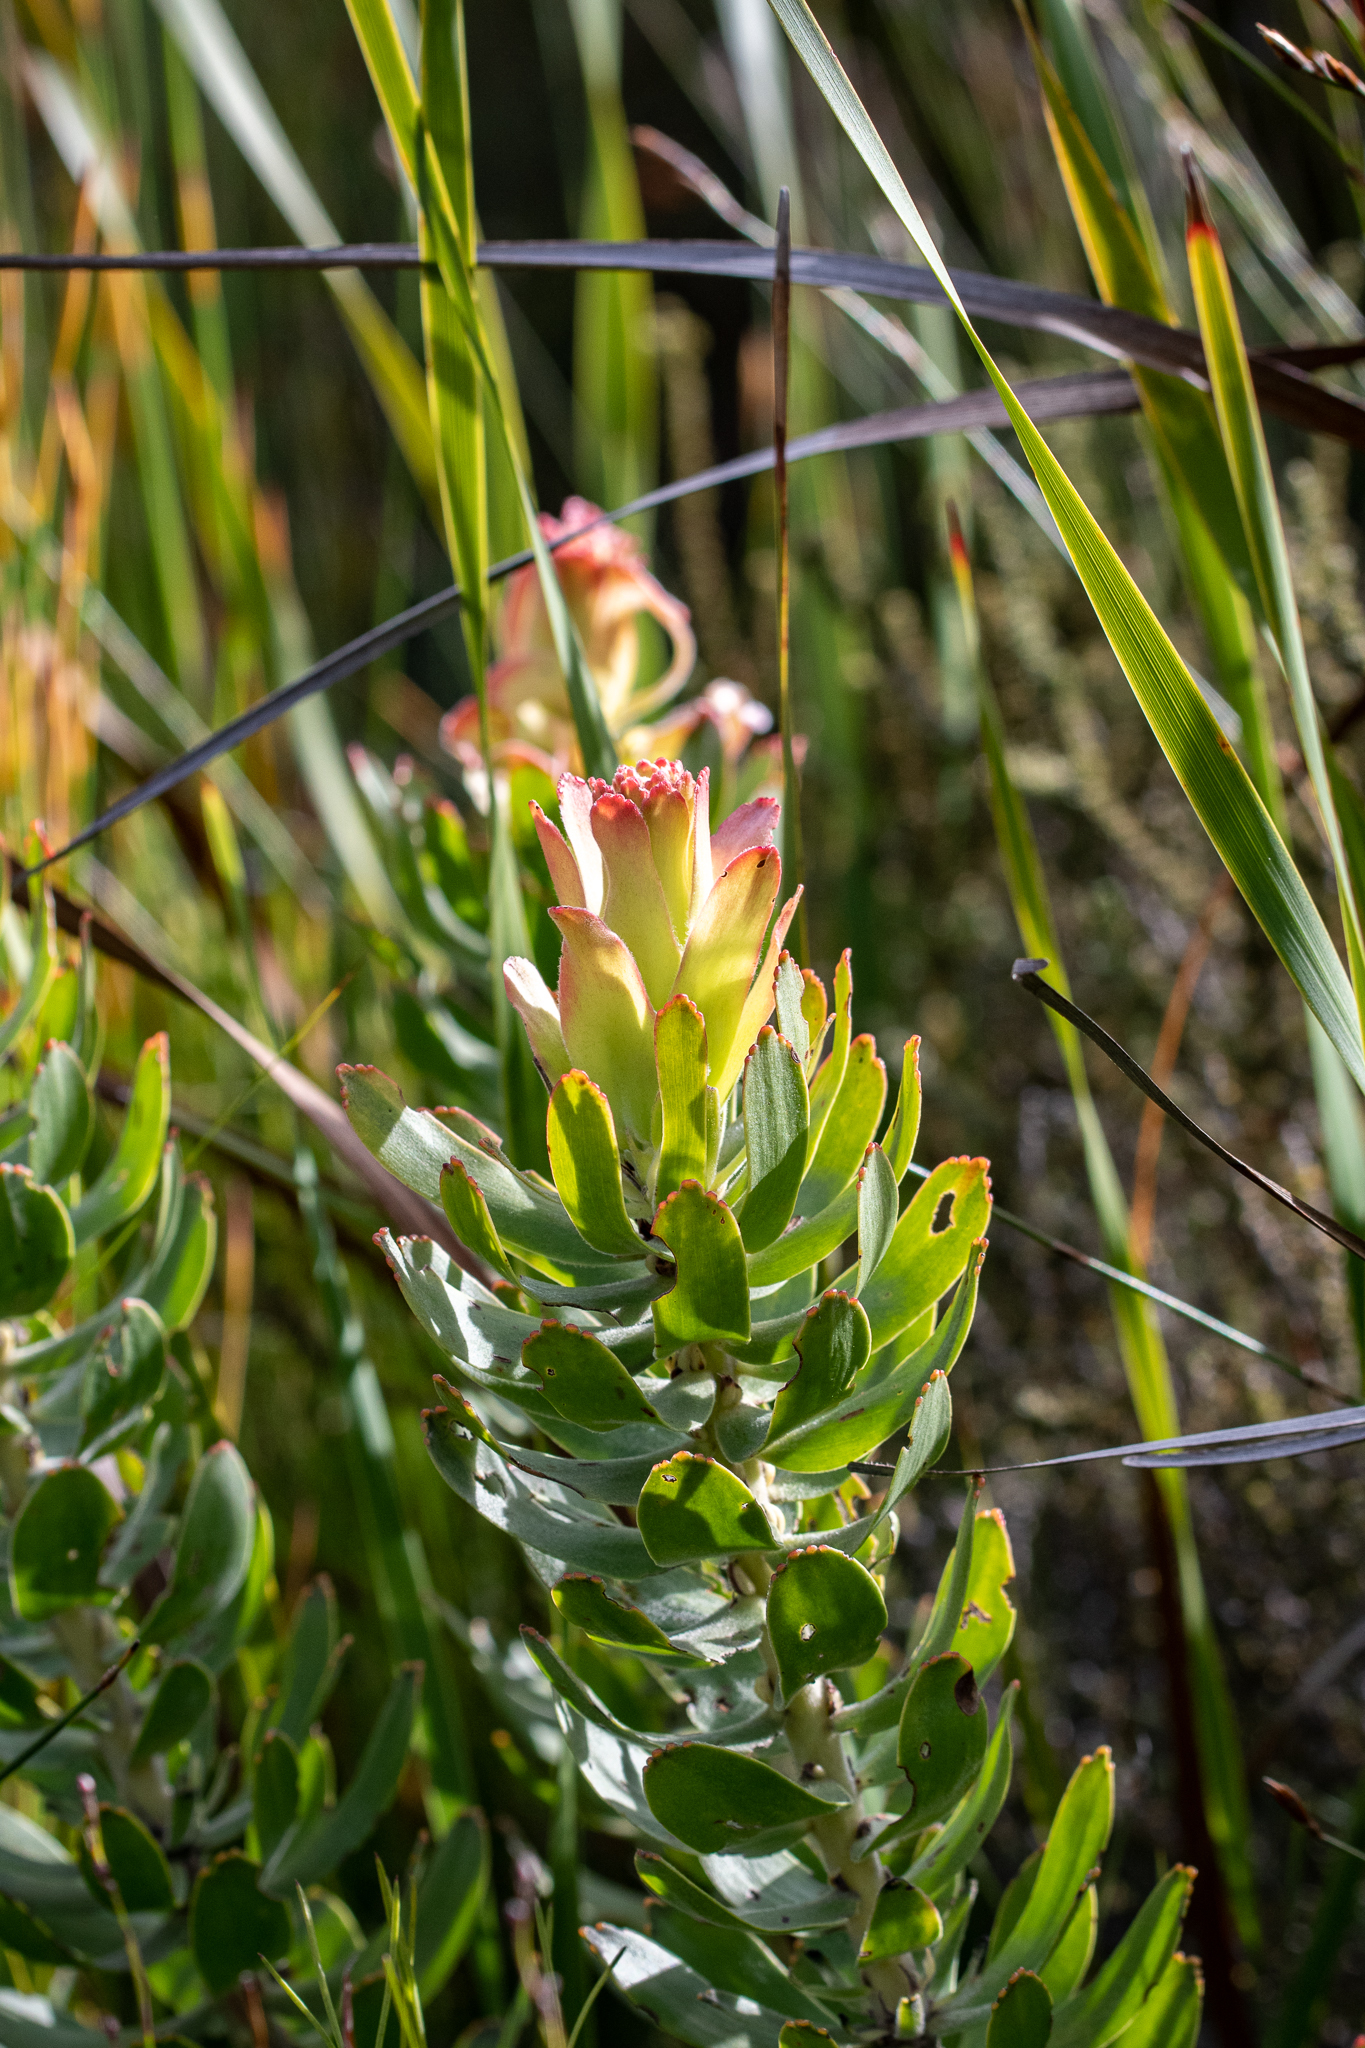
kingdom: Plantae
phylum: Tracheophyta
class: Magnoliopsida
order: Proteales
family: Proteaceae
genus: Mimetes
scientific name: Mimetes cucullatus
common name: Common pagoda
